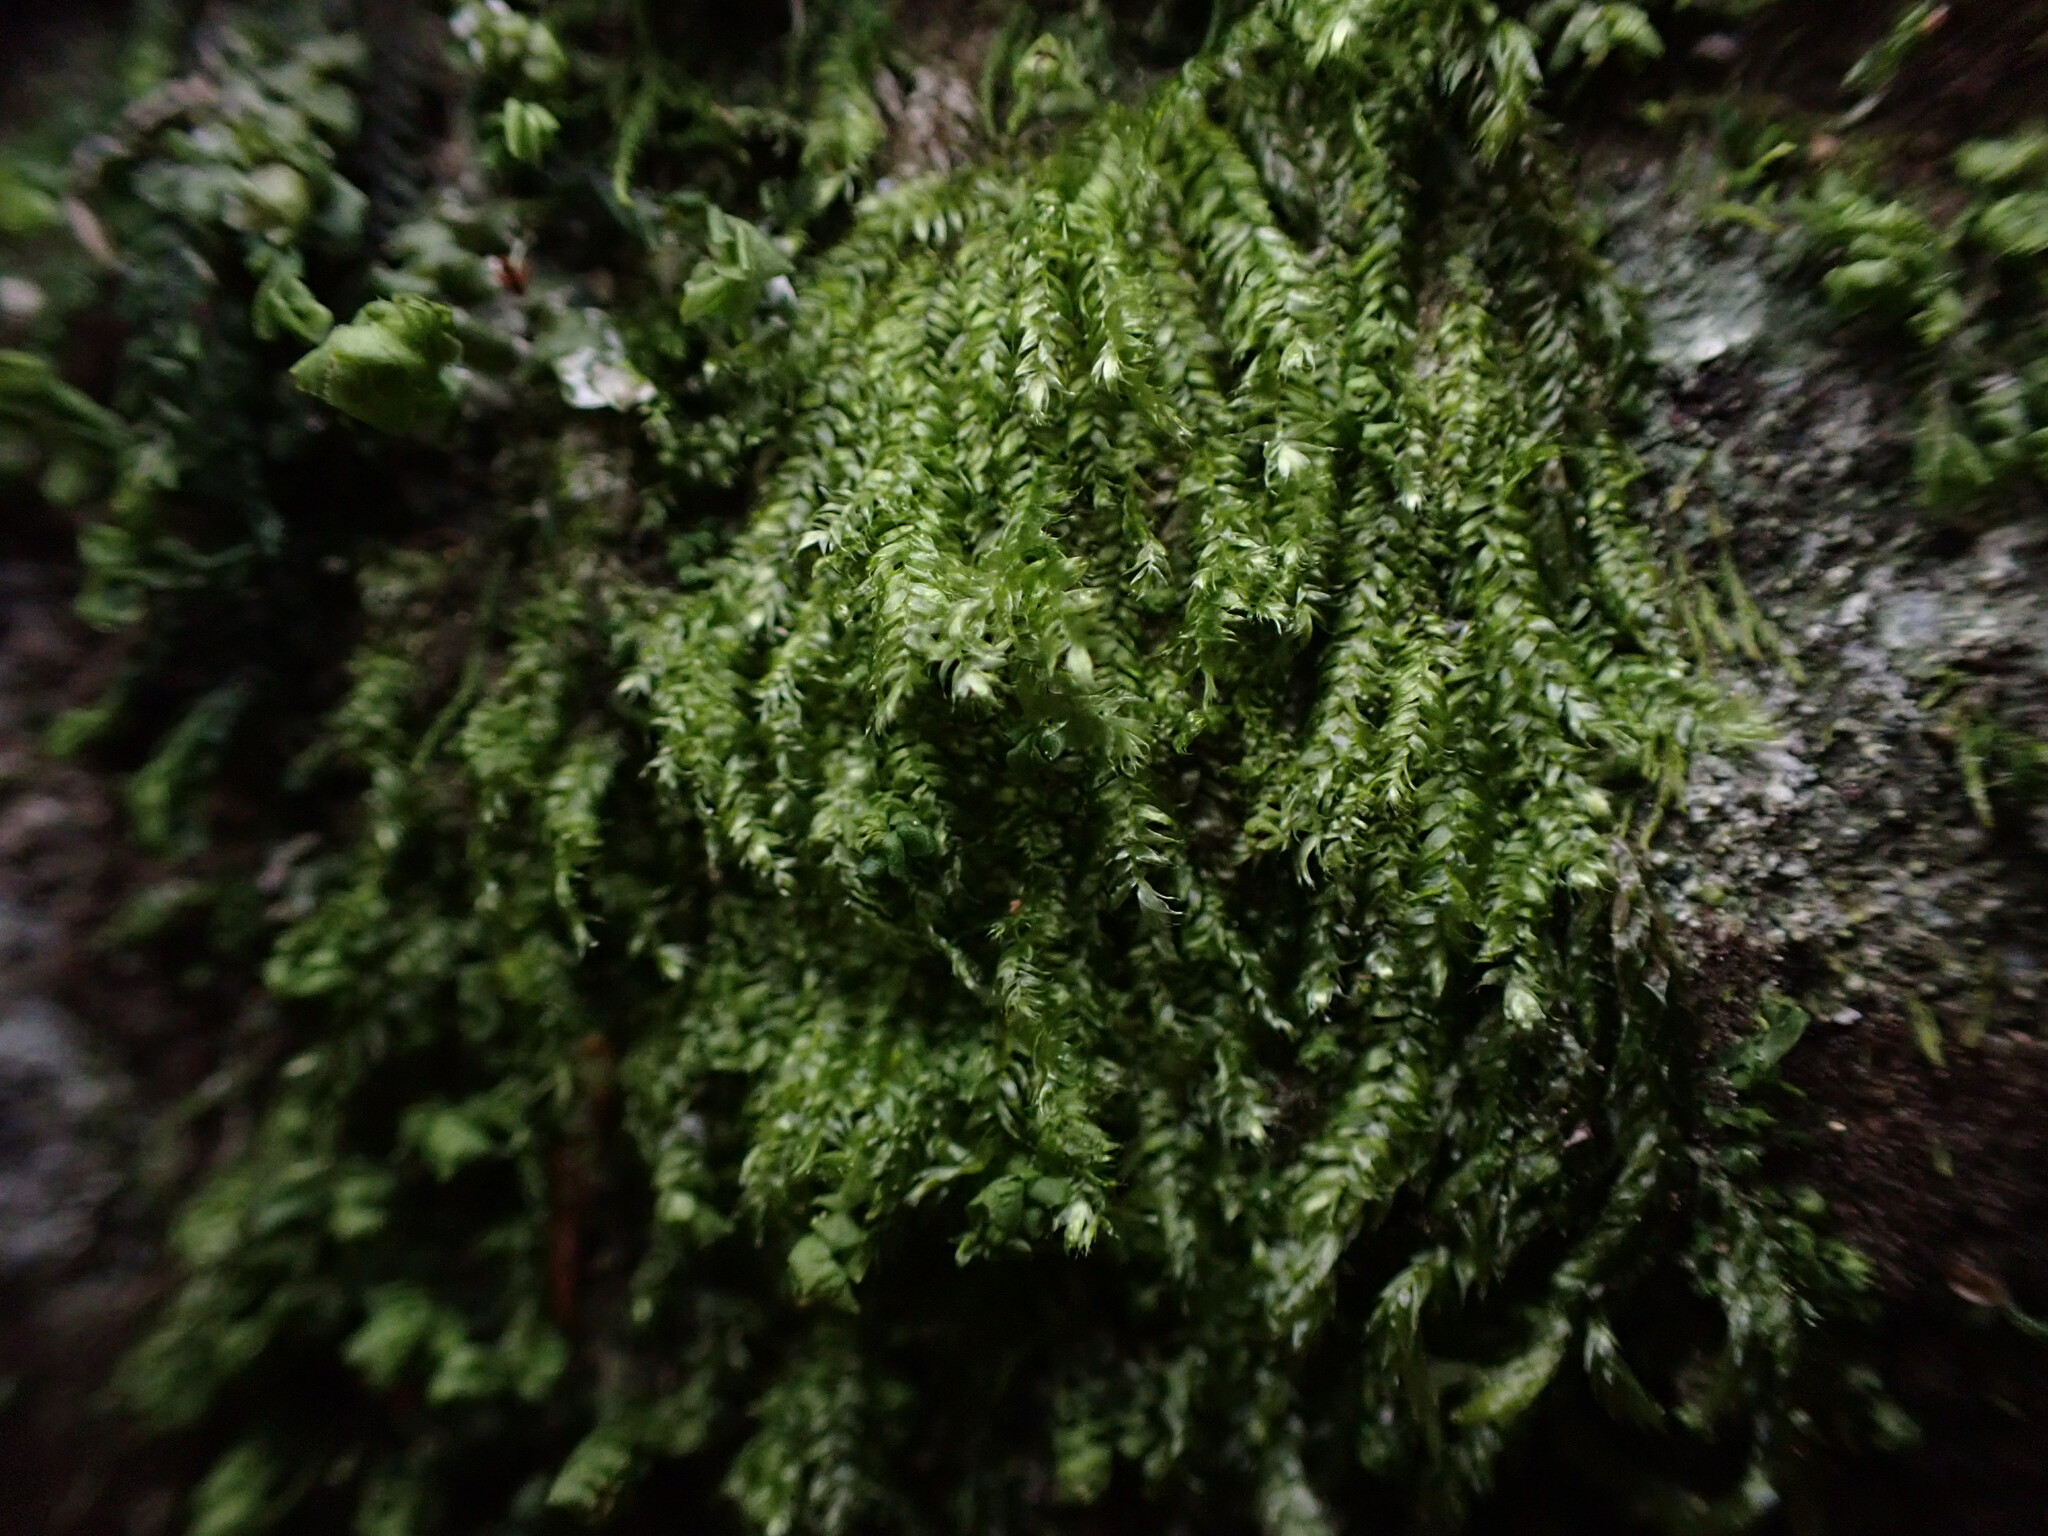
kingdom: Plantae
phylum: Bryophyta
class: Bryopsida
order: Hypnales
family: Plagiotheciaceae
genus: Pseudotaxiphyllum
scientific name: Pseudotaxiphyllum elegans
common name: Elegant silk moss
